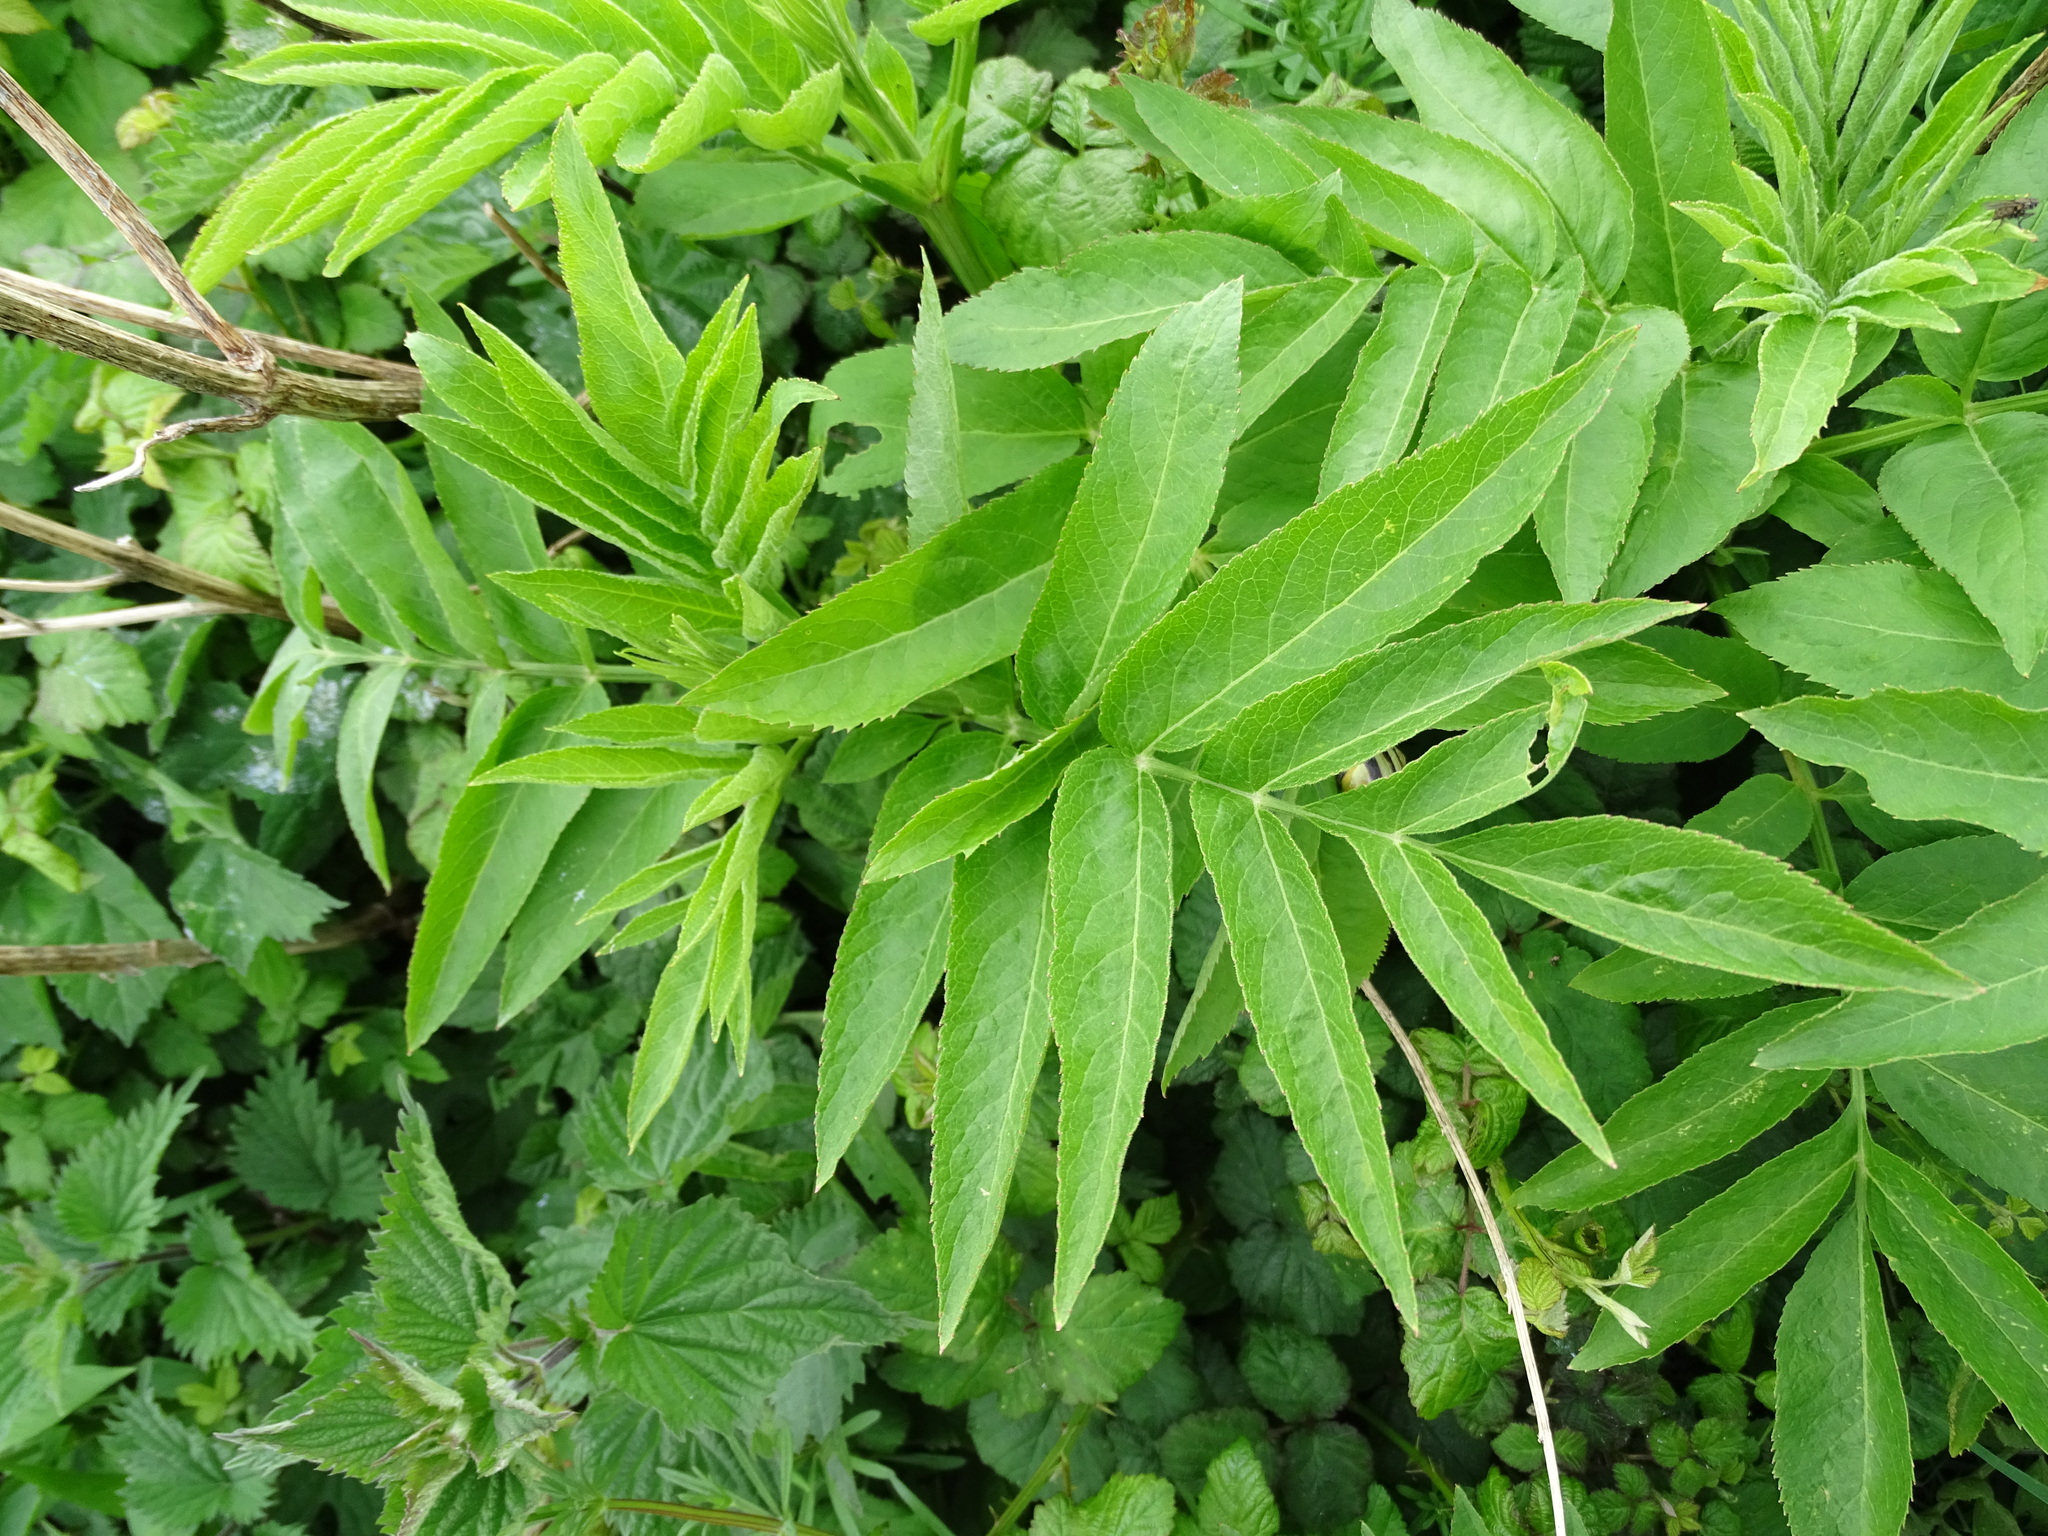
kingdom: Plantae
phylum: Tracheophyta
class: Magnoliopsida
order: Dipsacales
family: Viburnaceae
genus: Sambucus
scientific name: Sambucus ebulus
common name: Dwarf elder
